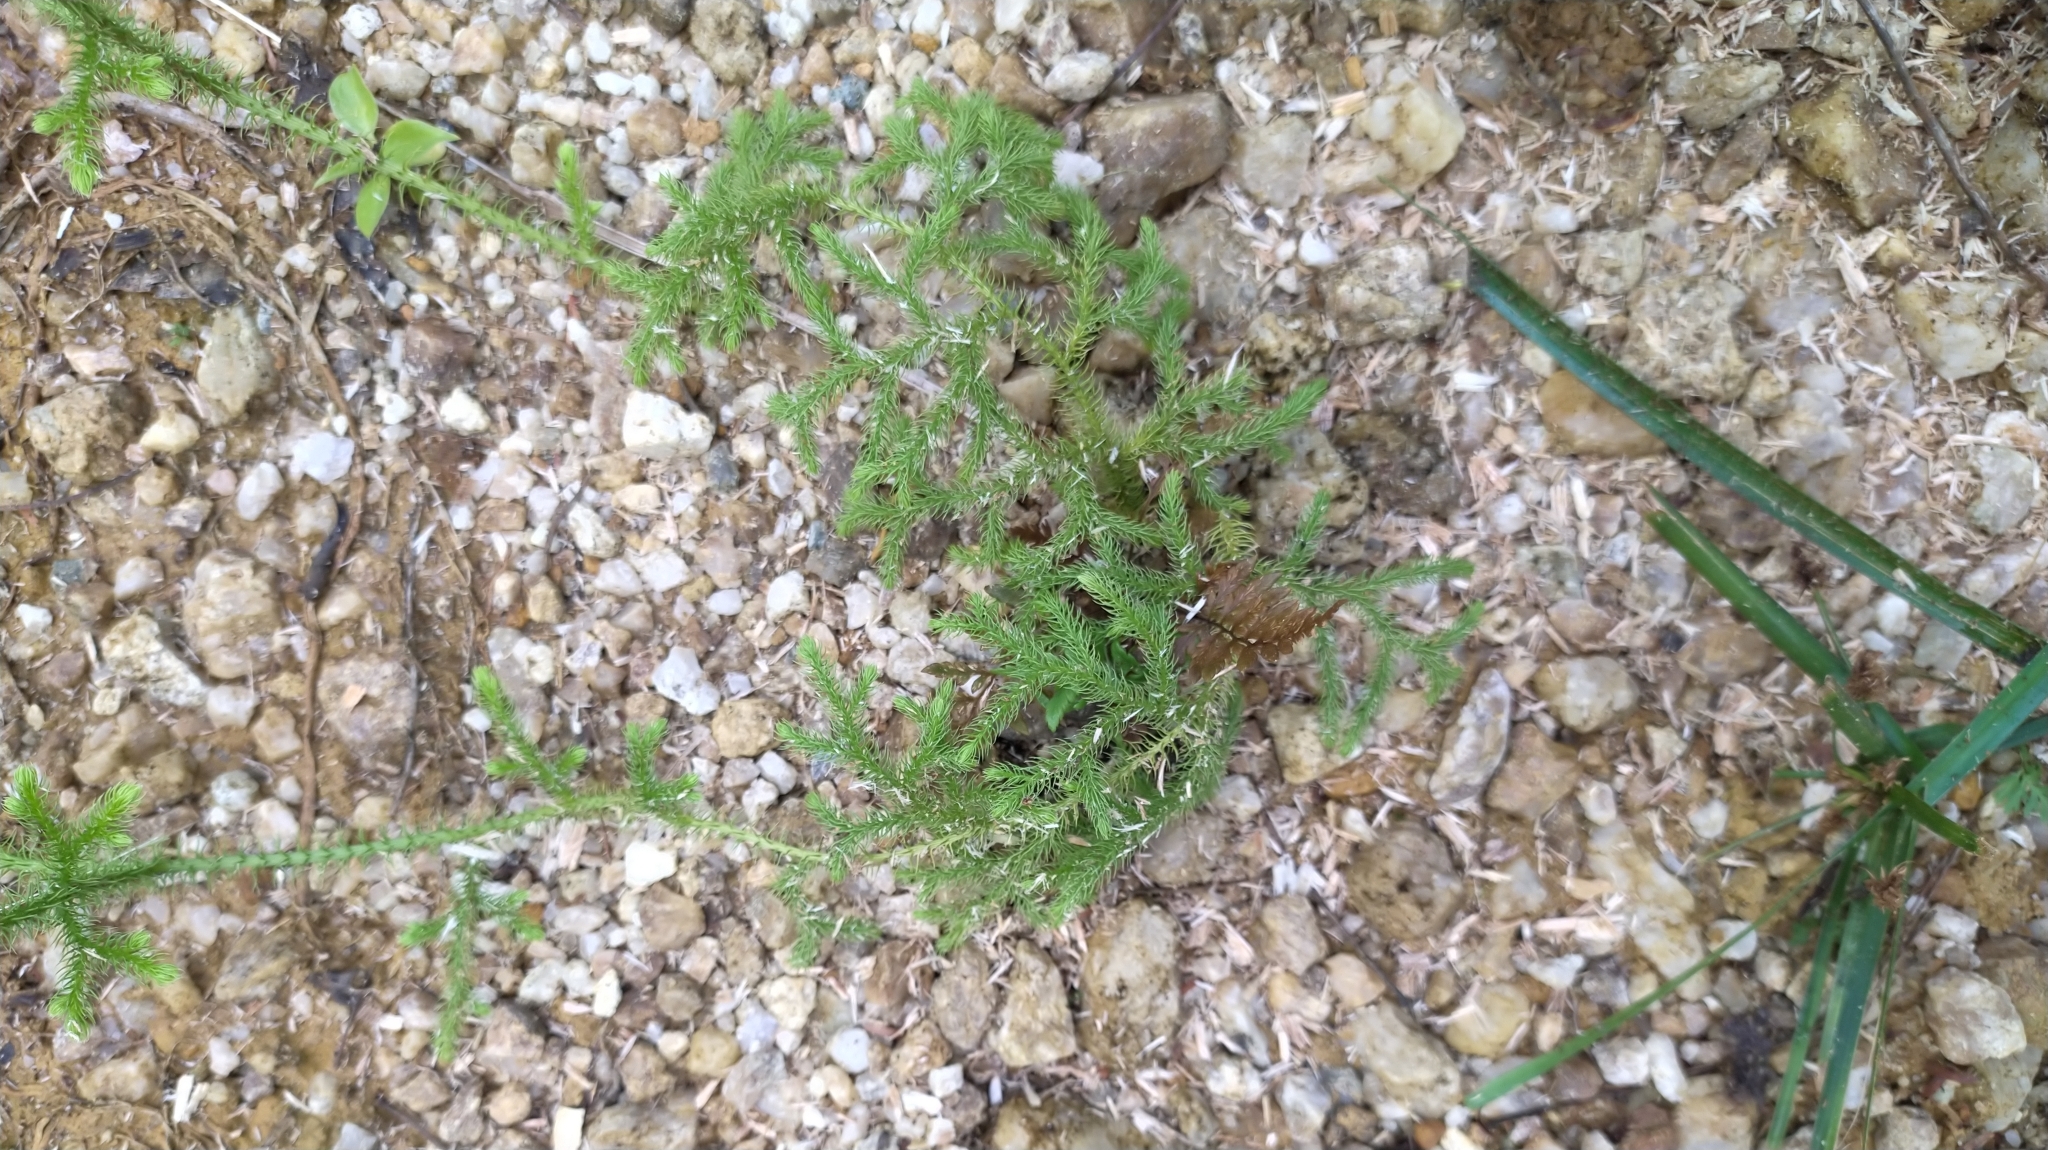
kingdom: Plantae
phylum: Tracheophyta
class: Lycopodiopsida
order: Lycopodiales
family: Lycopodiaceae
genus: Palhinhaea
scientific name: Palhinhaea cernua
